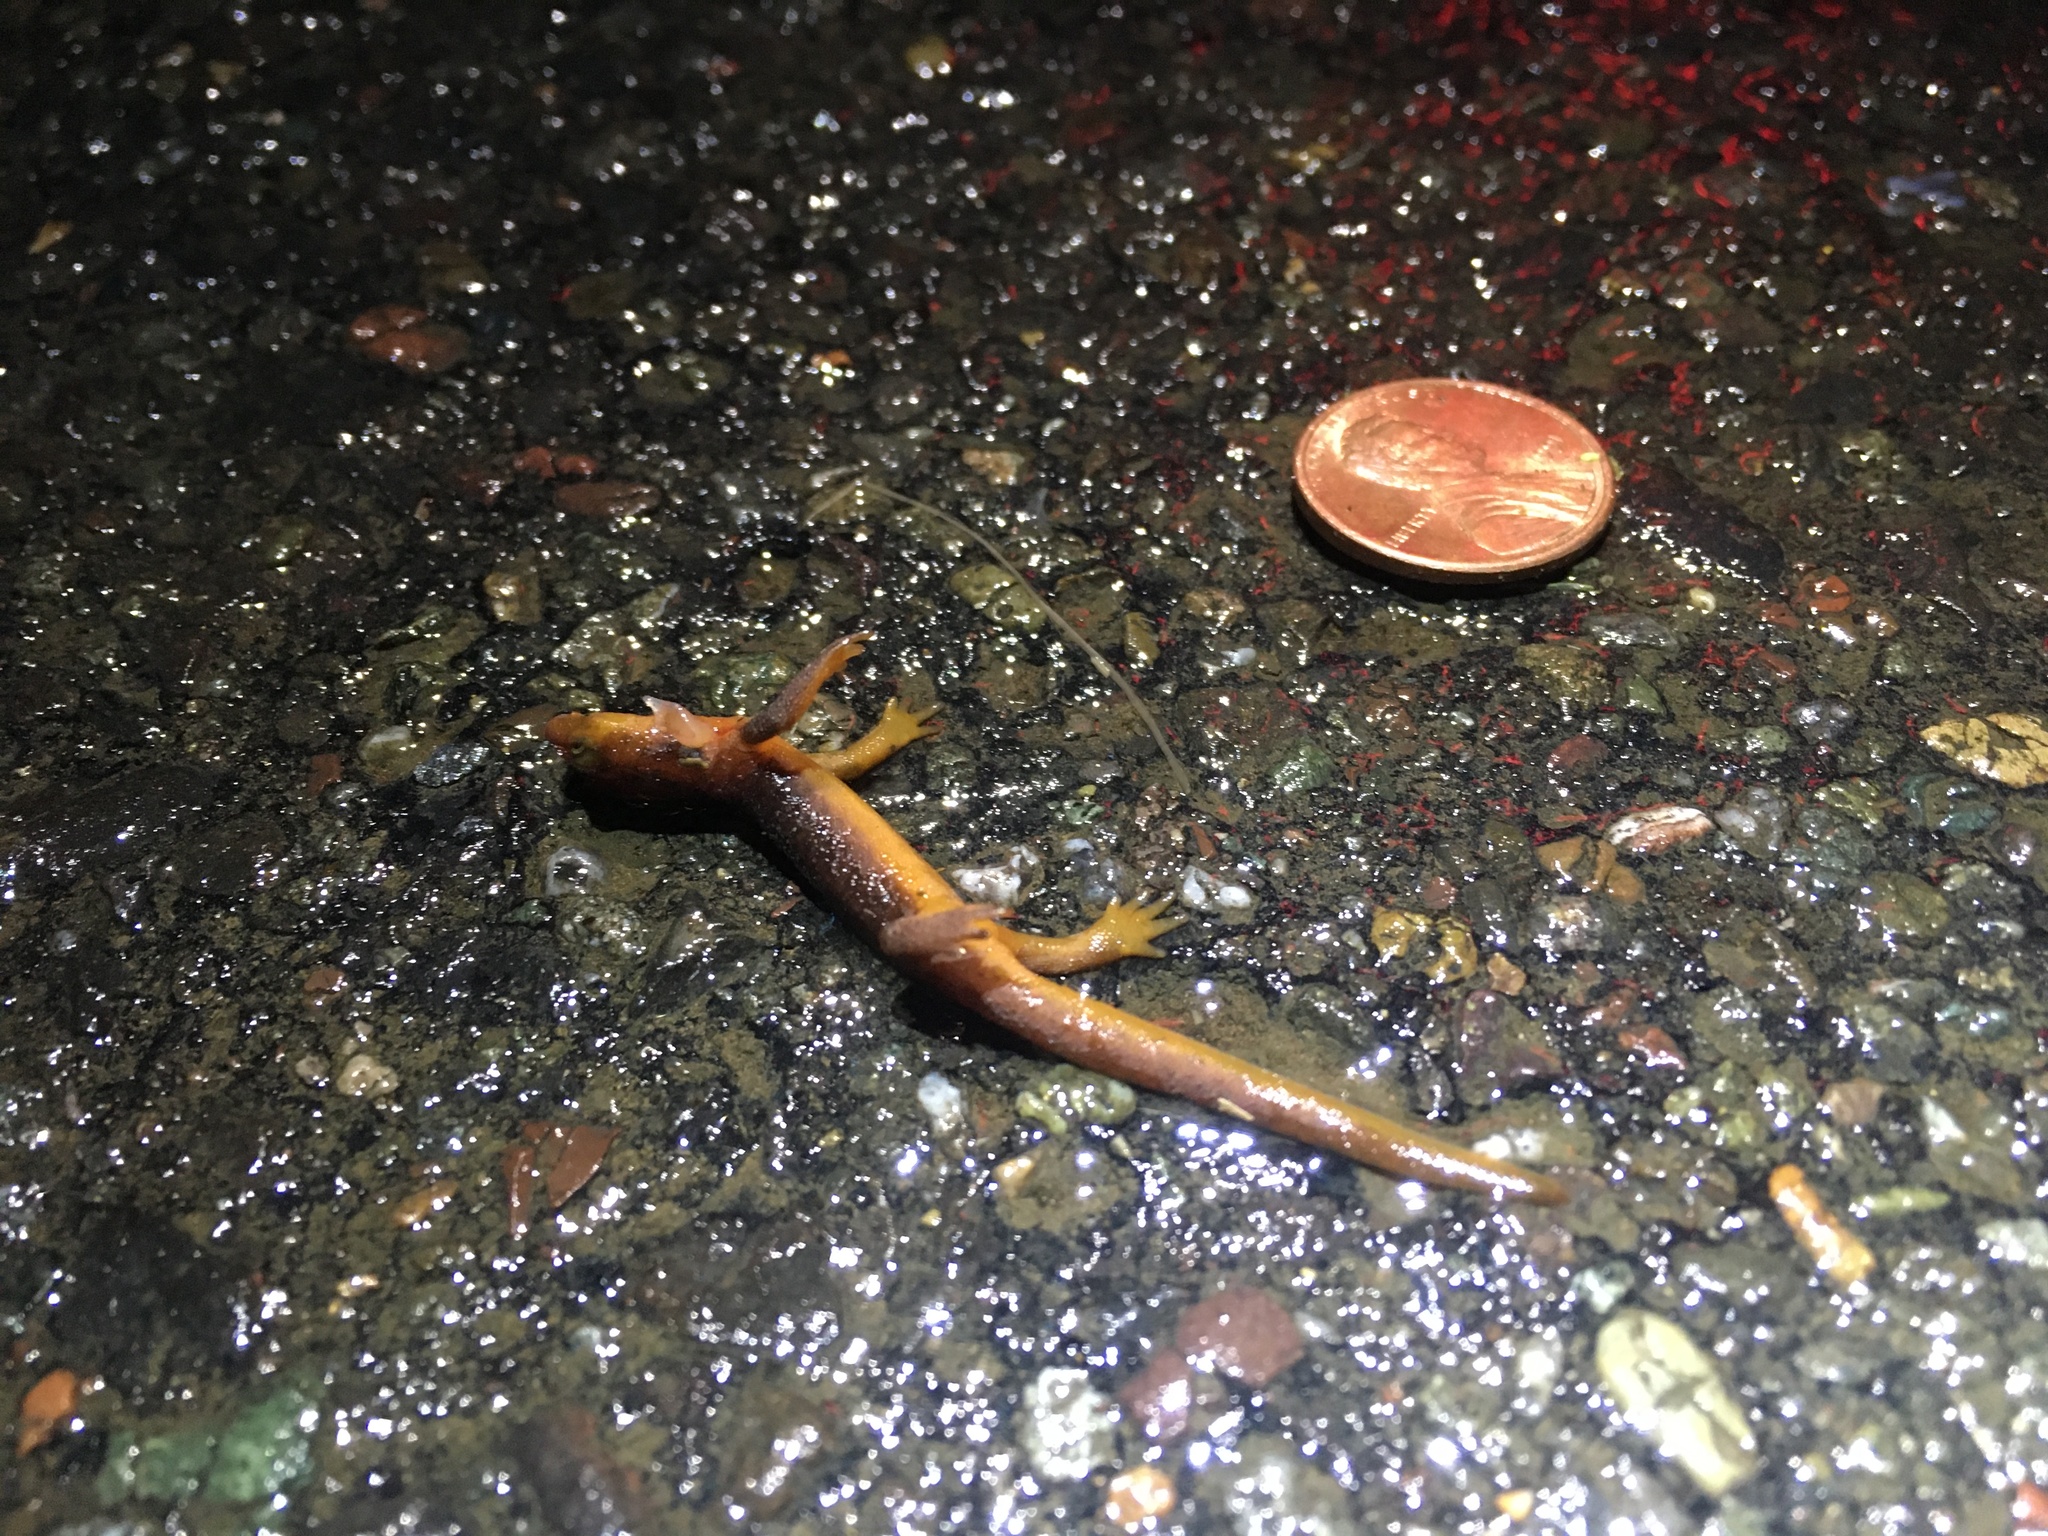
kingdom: Animalia
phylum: Chordata
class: Amphibia
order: Caudata
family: Salamandridae
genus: Taricha
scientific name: Taricha
